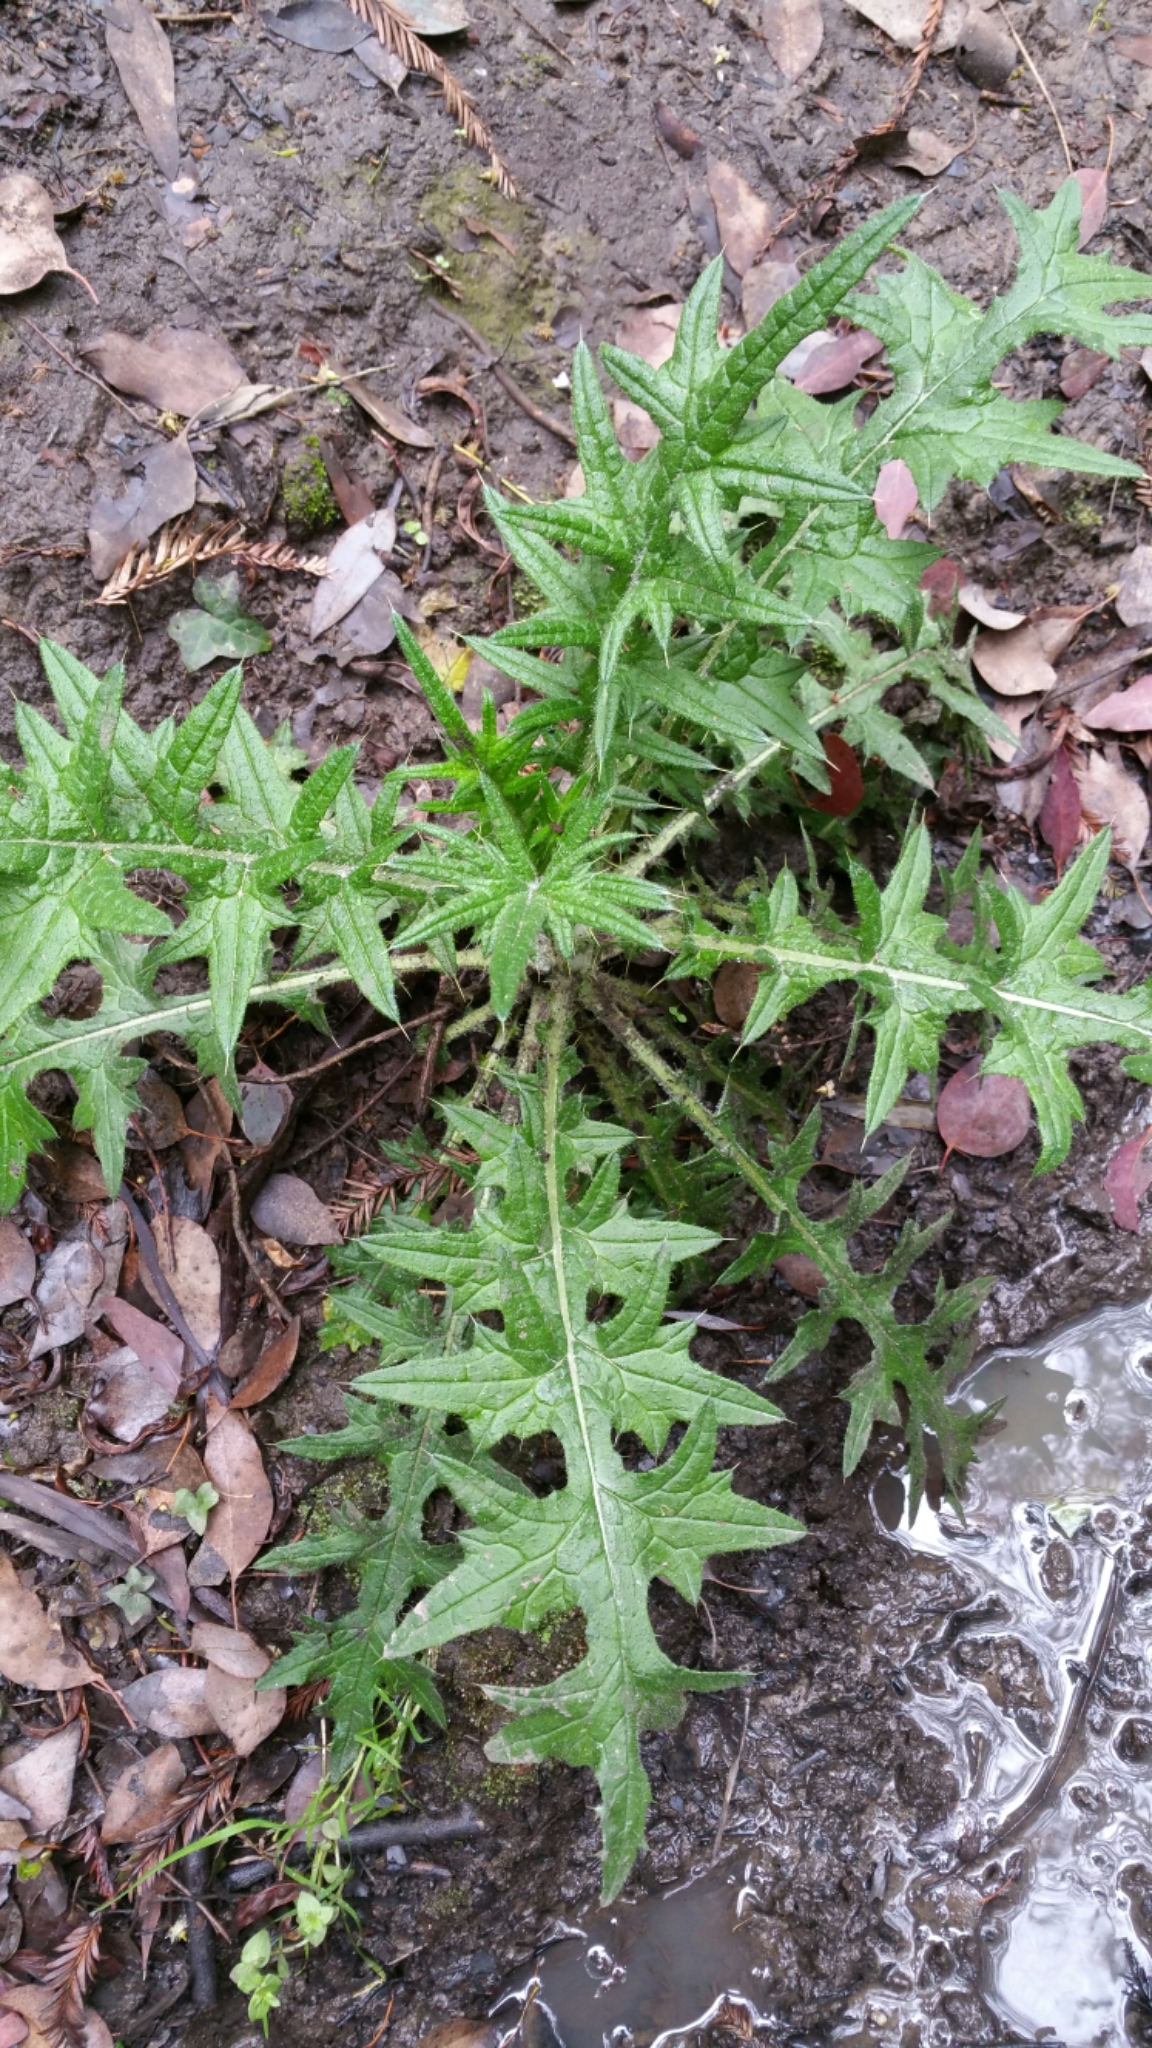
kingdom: Plantae
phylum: Tracheophyta
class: Magnoliopsida
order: Asterales
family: Asteraceae
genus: Cirsium
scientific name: Cirsium vulgare
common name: Bull thistle
